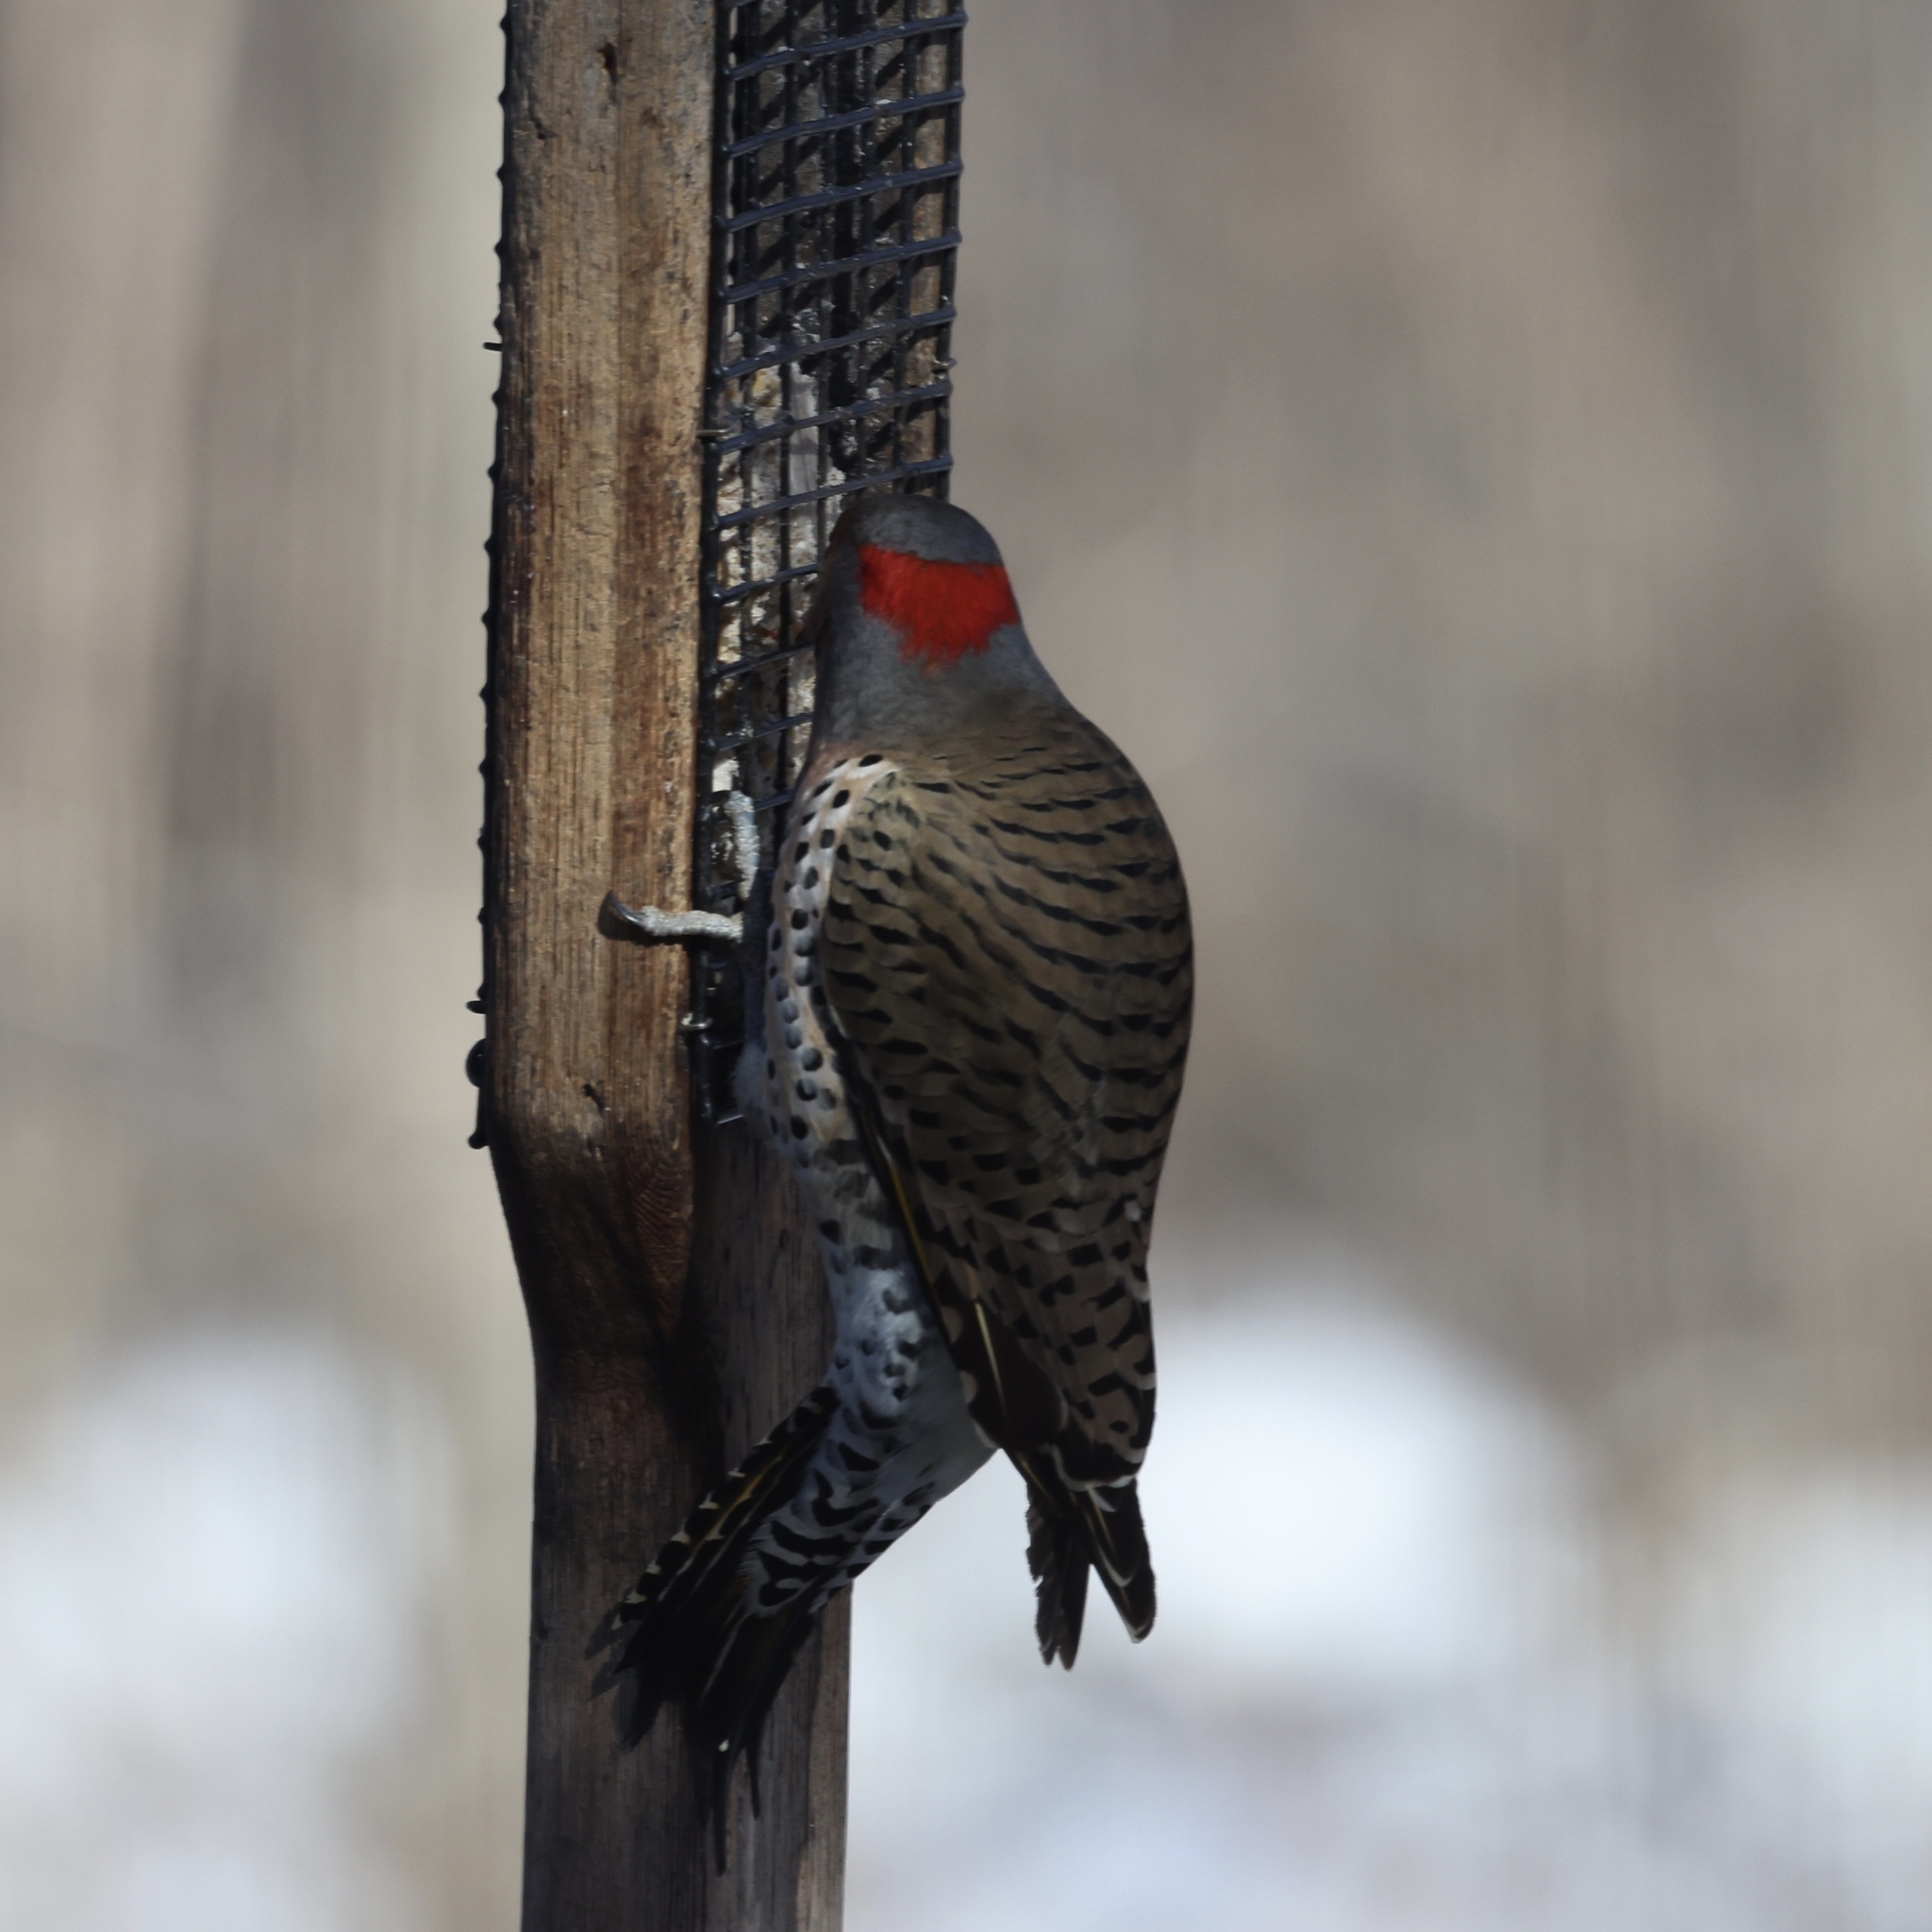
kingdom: Animalia
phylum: Chordata
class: Aves
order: Piciformes
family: Picidae
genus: Colaptes
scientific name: Colaptes auratus
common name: Northern flicker
